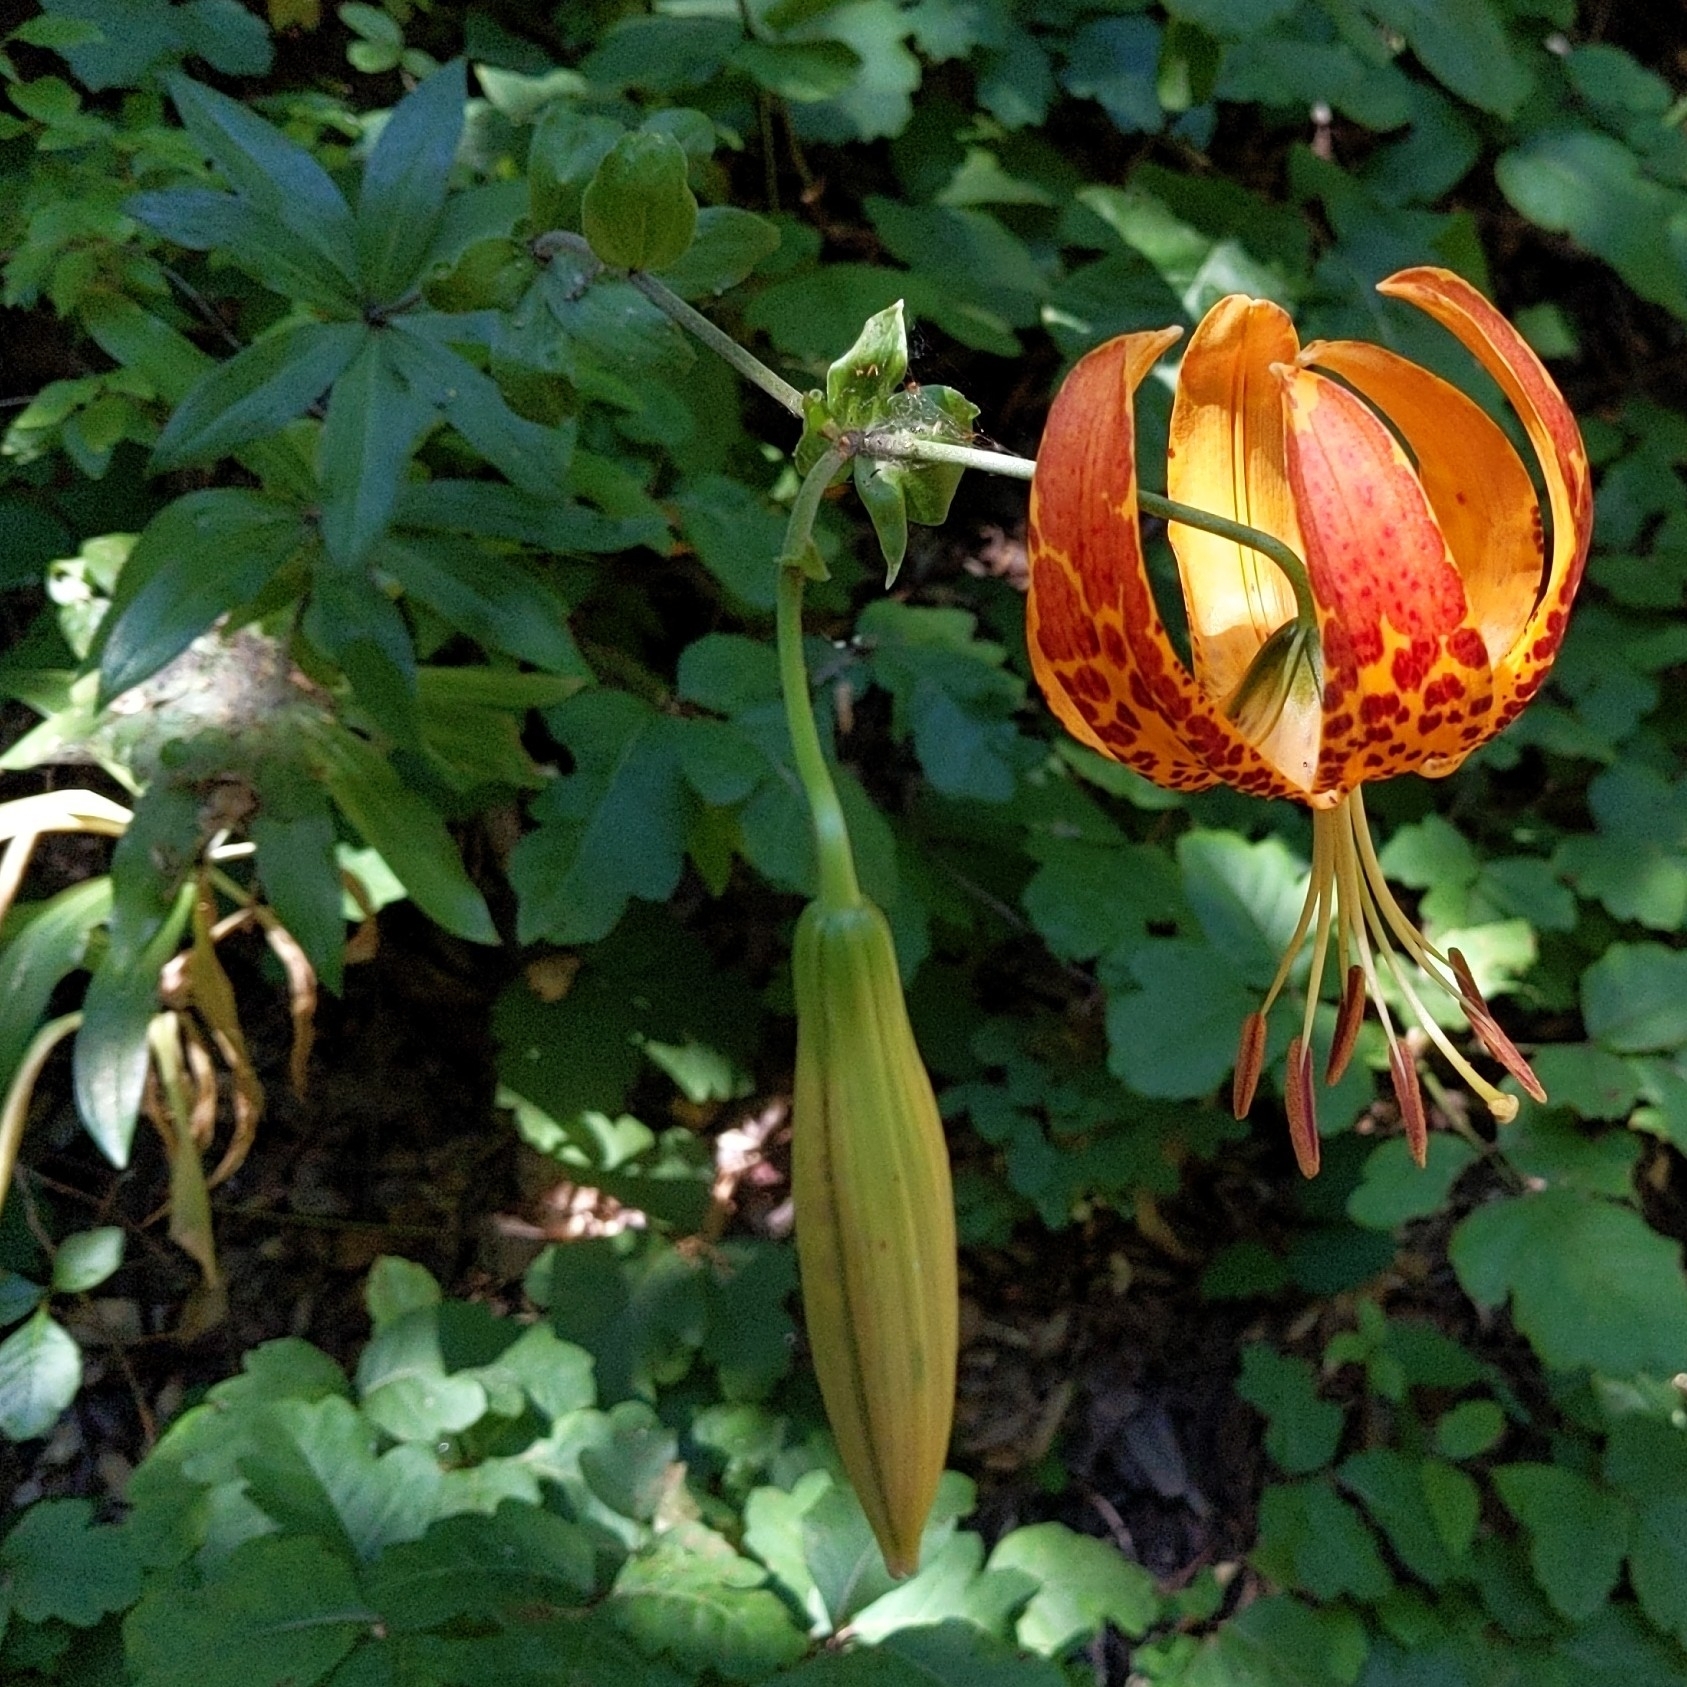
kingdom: Plantae
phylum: Tracheophyta
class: Liliopsida
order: Liliales
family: Liliaceae
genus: Lilium
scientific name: Lilium humboldtii
